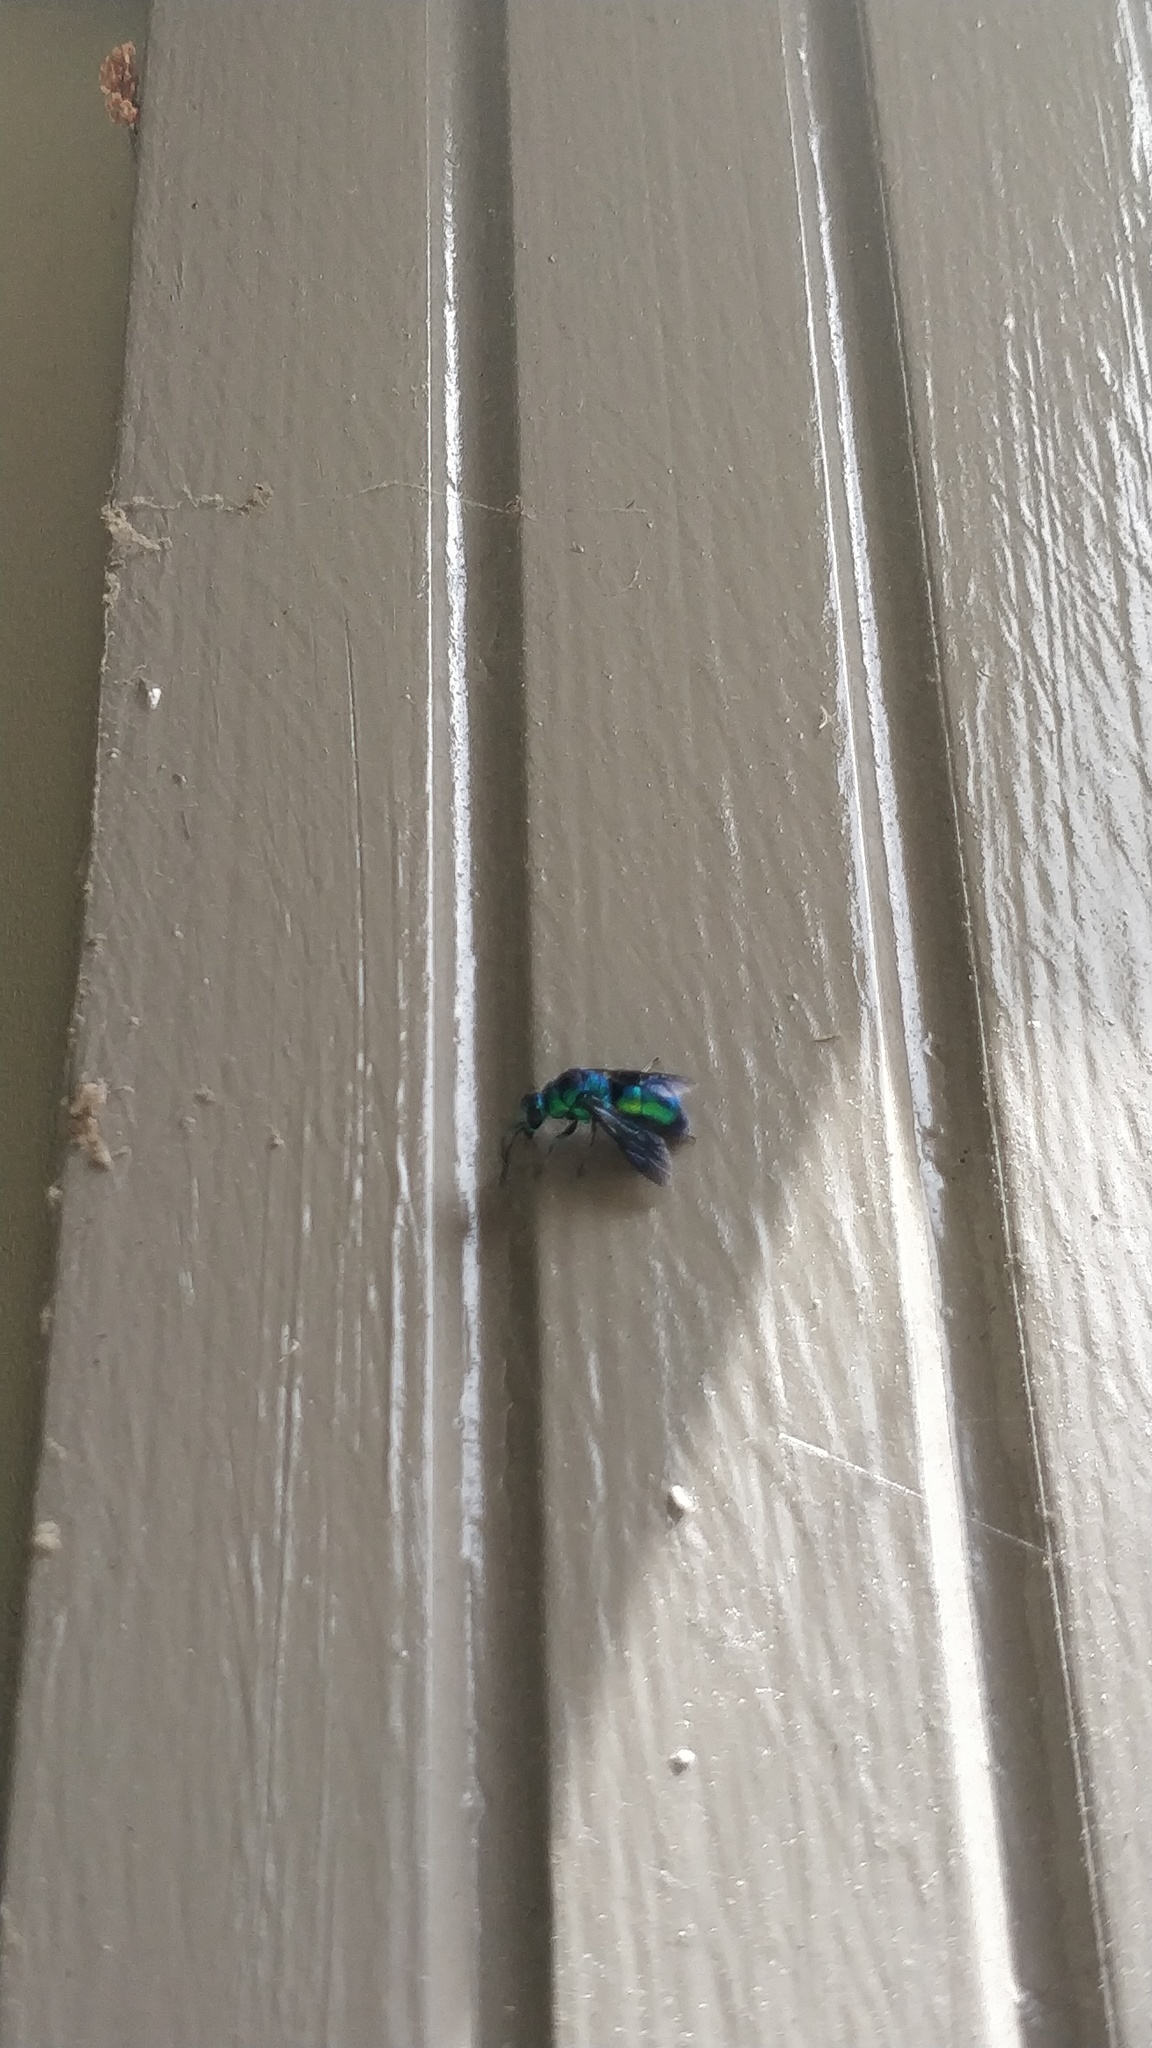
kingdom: Animalia
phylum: Arthropoda
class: Insecta
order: Hymenoptera
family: Chrysididae
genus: Chrysis
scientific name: Chrysis angolensis
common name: Cuckoo wasp
